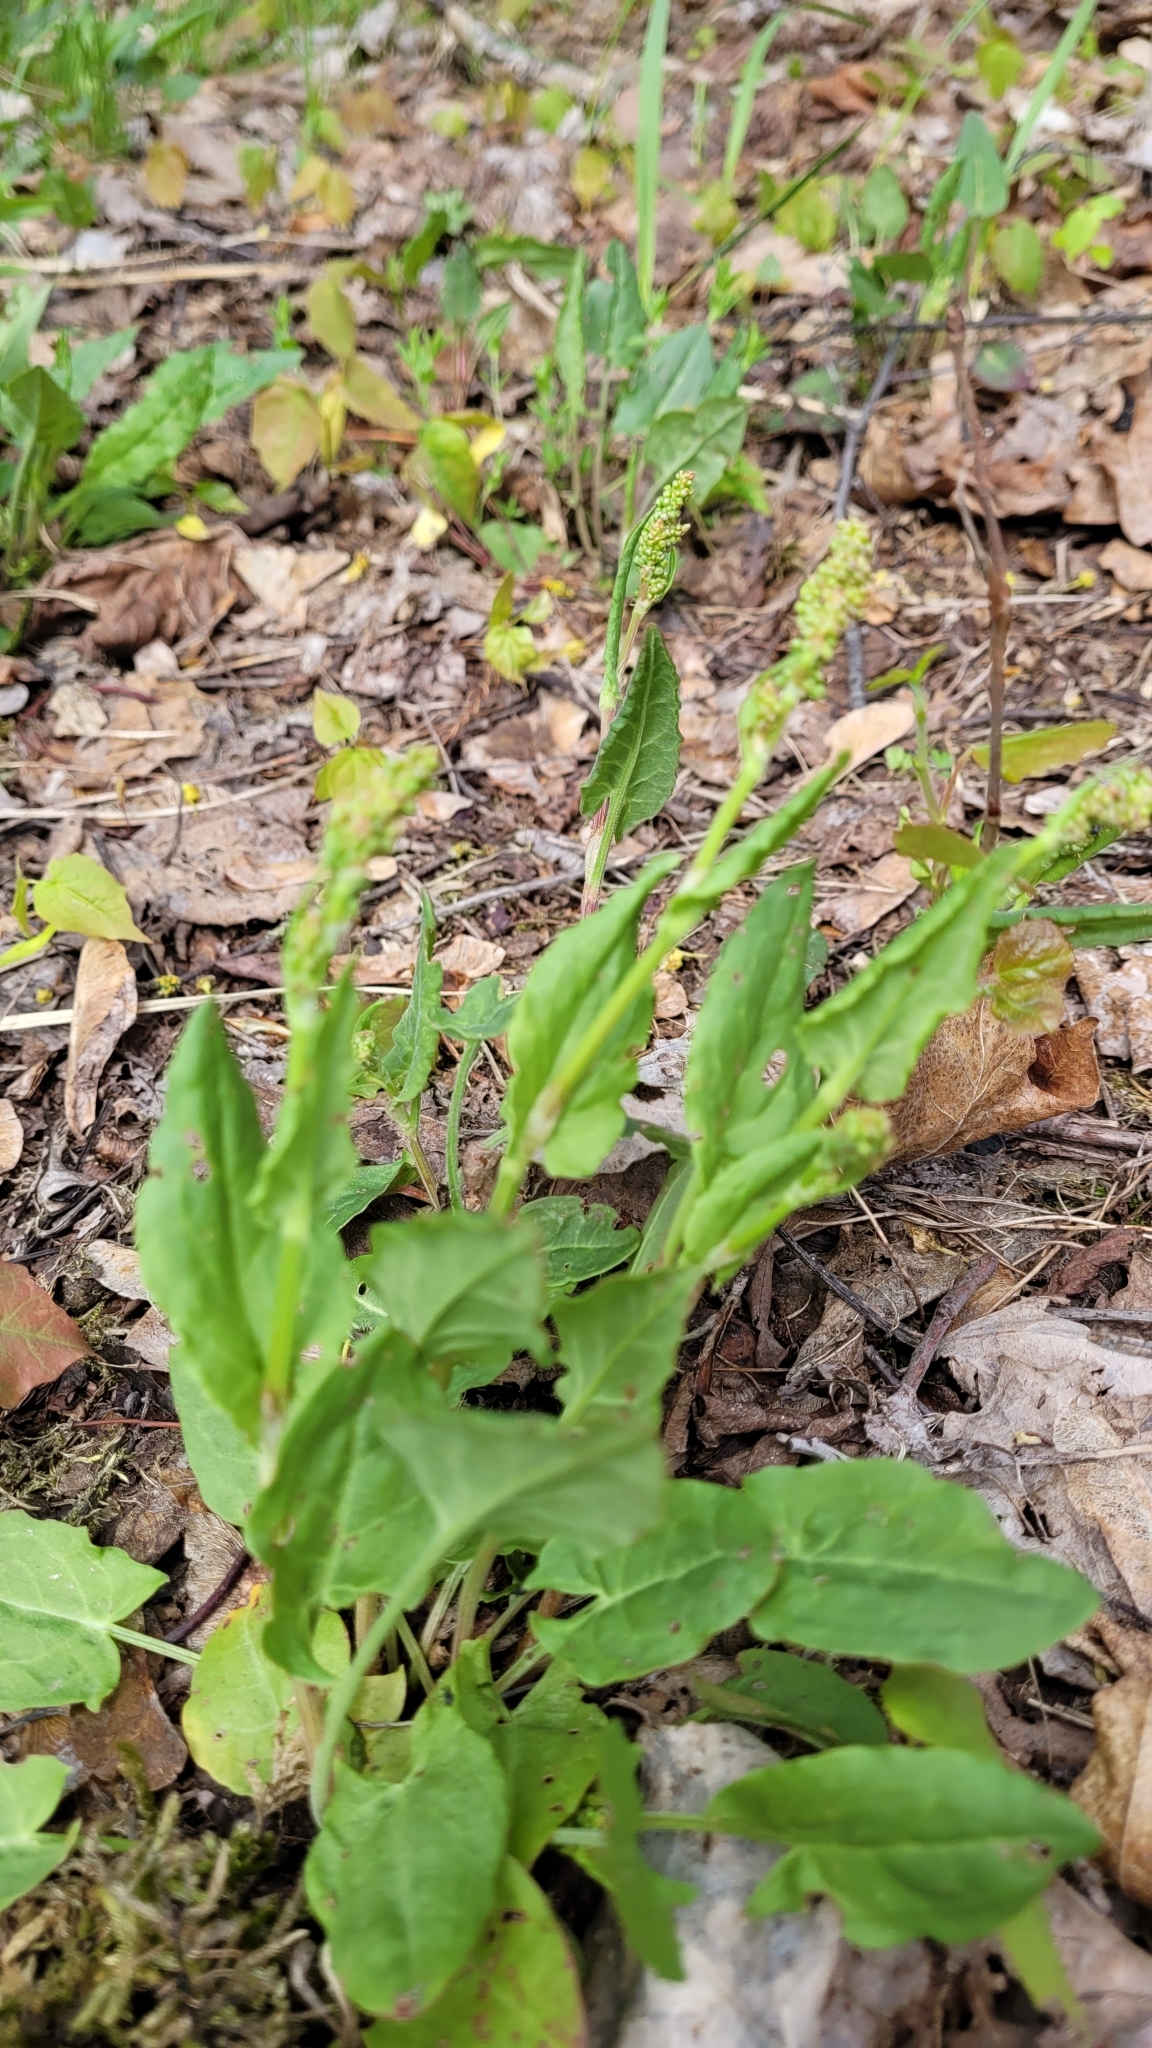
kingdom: Plantae
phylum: Tracheophyta
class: Magnoliopsida
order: Caryophyllales
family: Polygonaceae
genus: Rumex
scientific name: Rumex acetosa
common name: Garden sorrel
